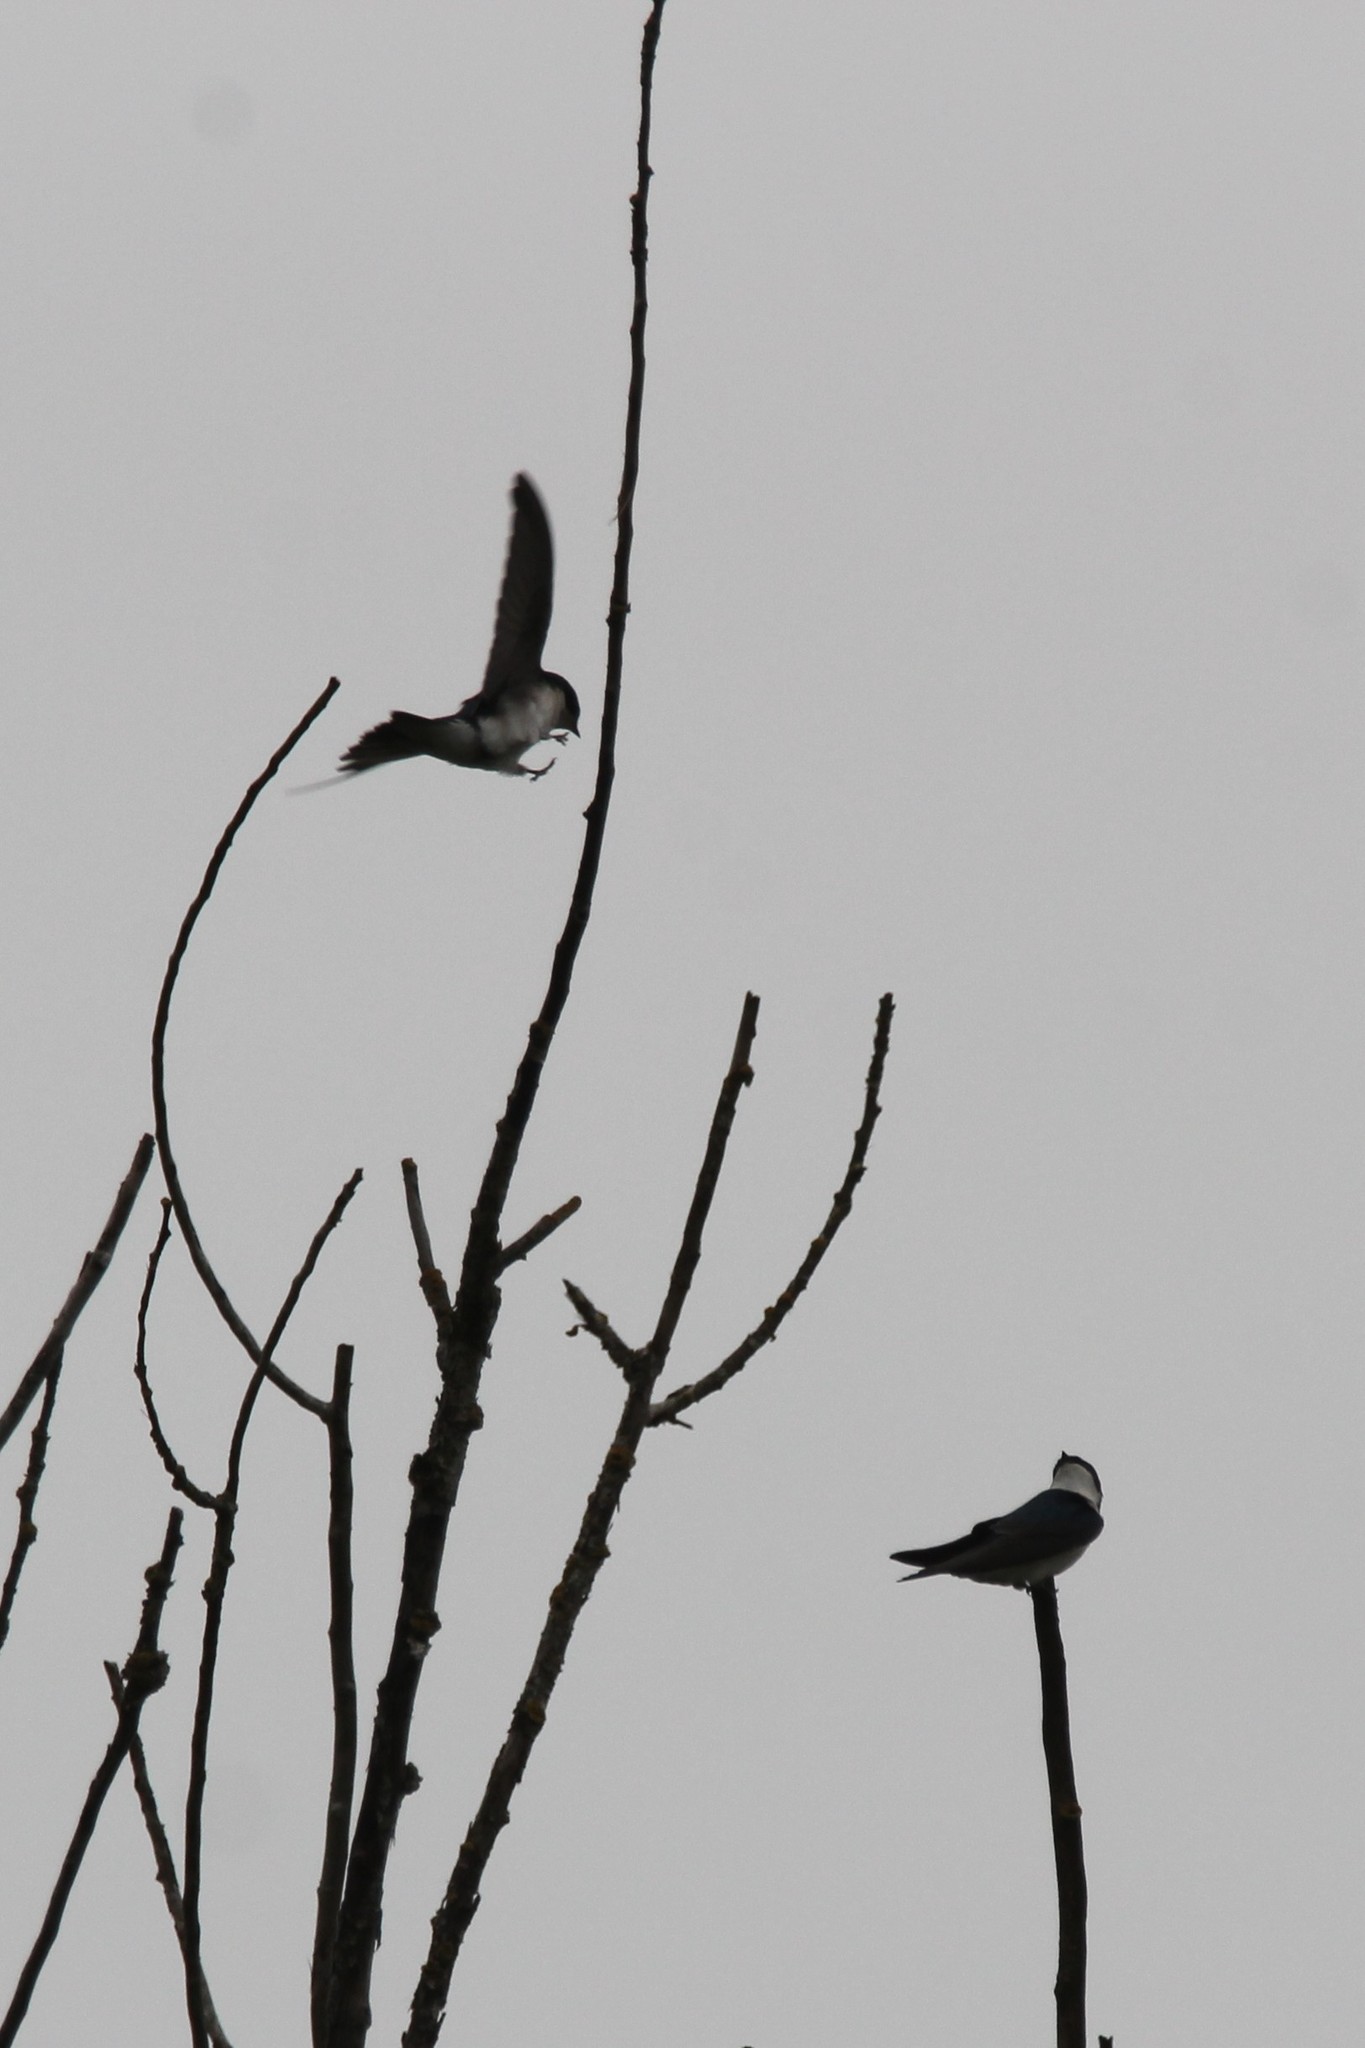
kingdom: Animalia
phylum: Chordata
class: Aves
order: Passeriformes
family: Hirundinidae
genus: Tachycineta
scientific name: Tachycineta bicolor
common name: Tree swallow
